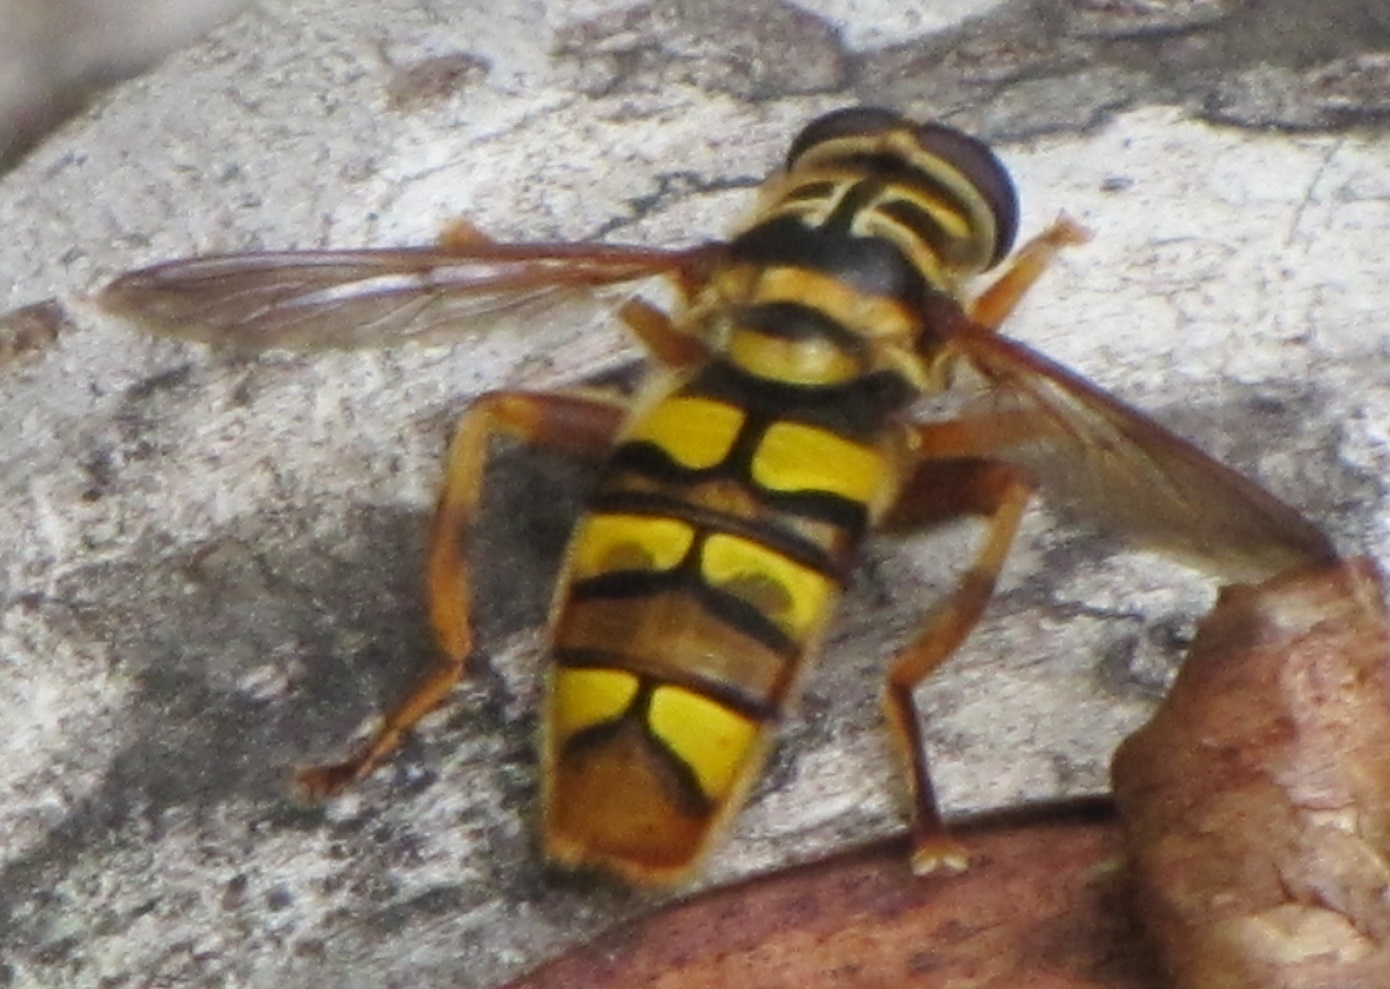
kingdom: Animalia
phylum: Arthropoda
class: Insecta
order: Diptera
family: Syrphidae
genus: Milesia
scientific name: Milesia virginiensis
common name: Virginia giant
